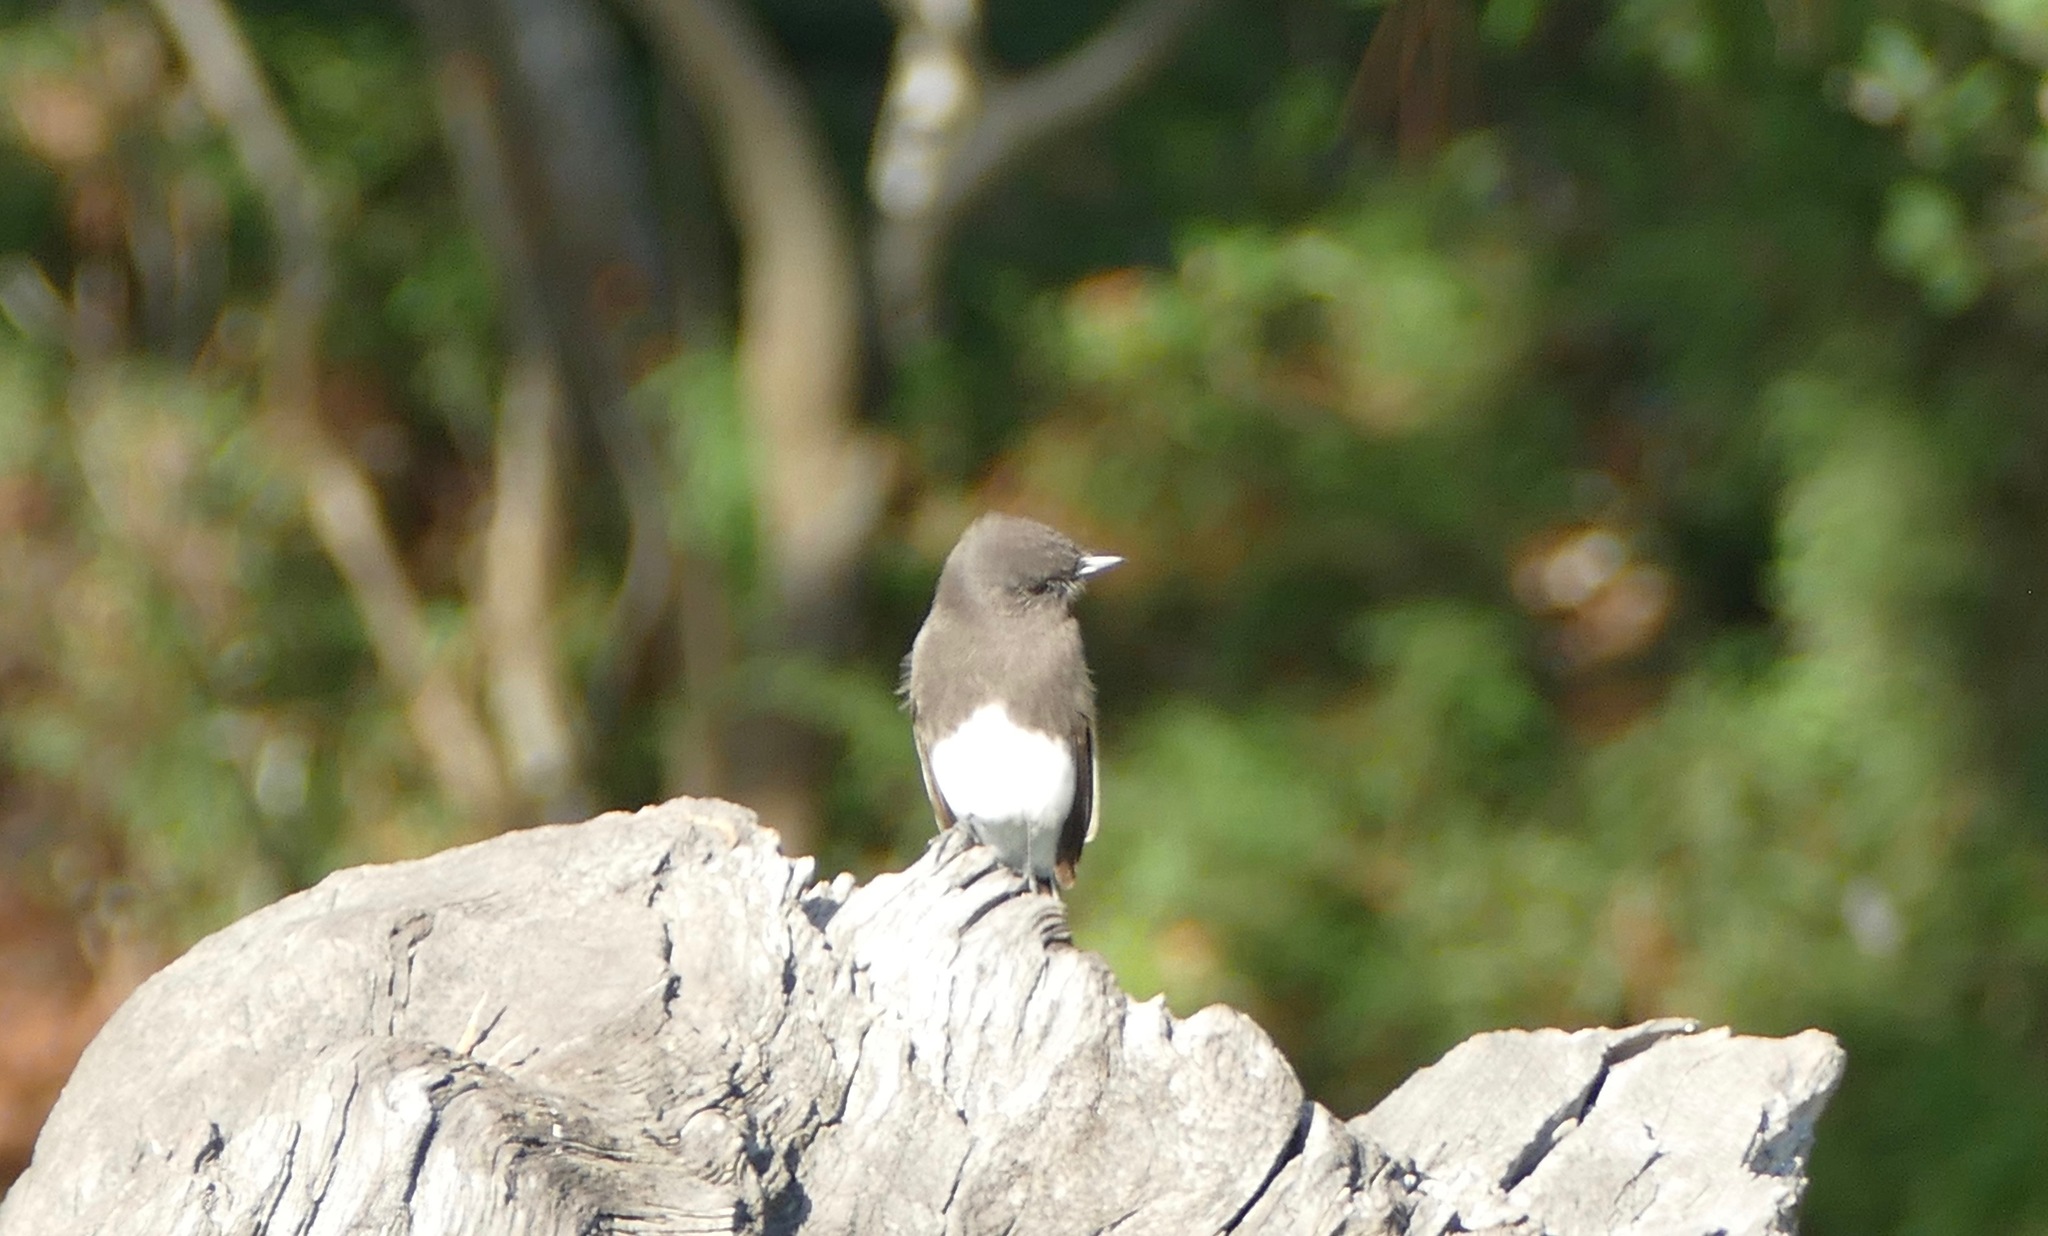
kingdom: Animalia
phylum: Chordata
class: Aves
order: Passeriformes
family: Tyrannidae
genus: Sayornis
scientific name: Sayornis nigricans
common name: Black phoebe
